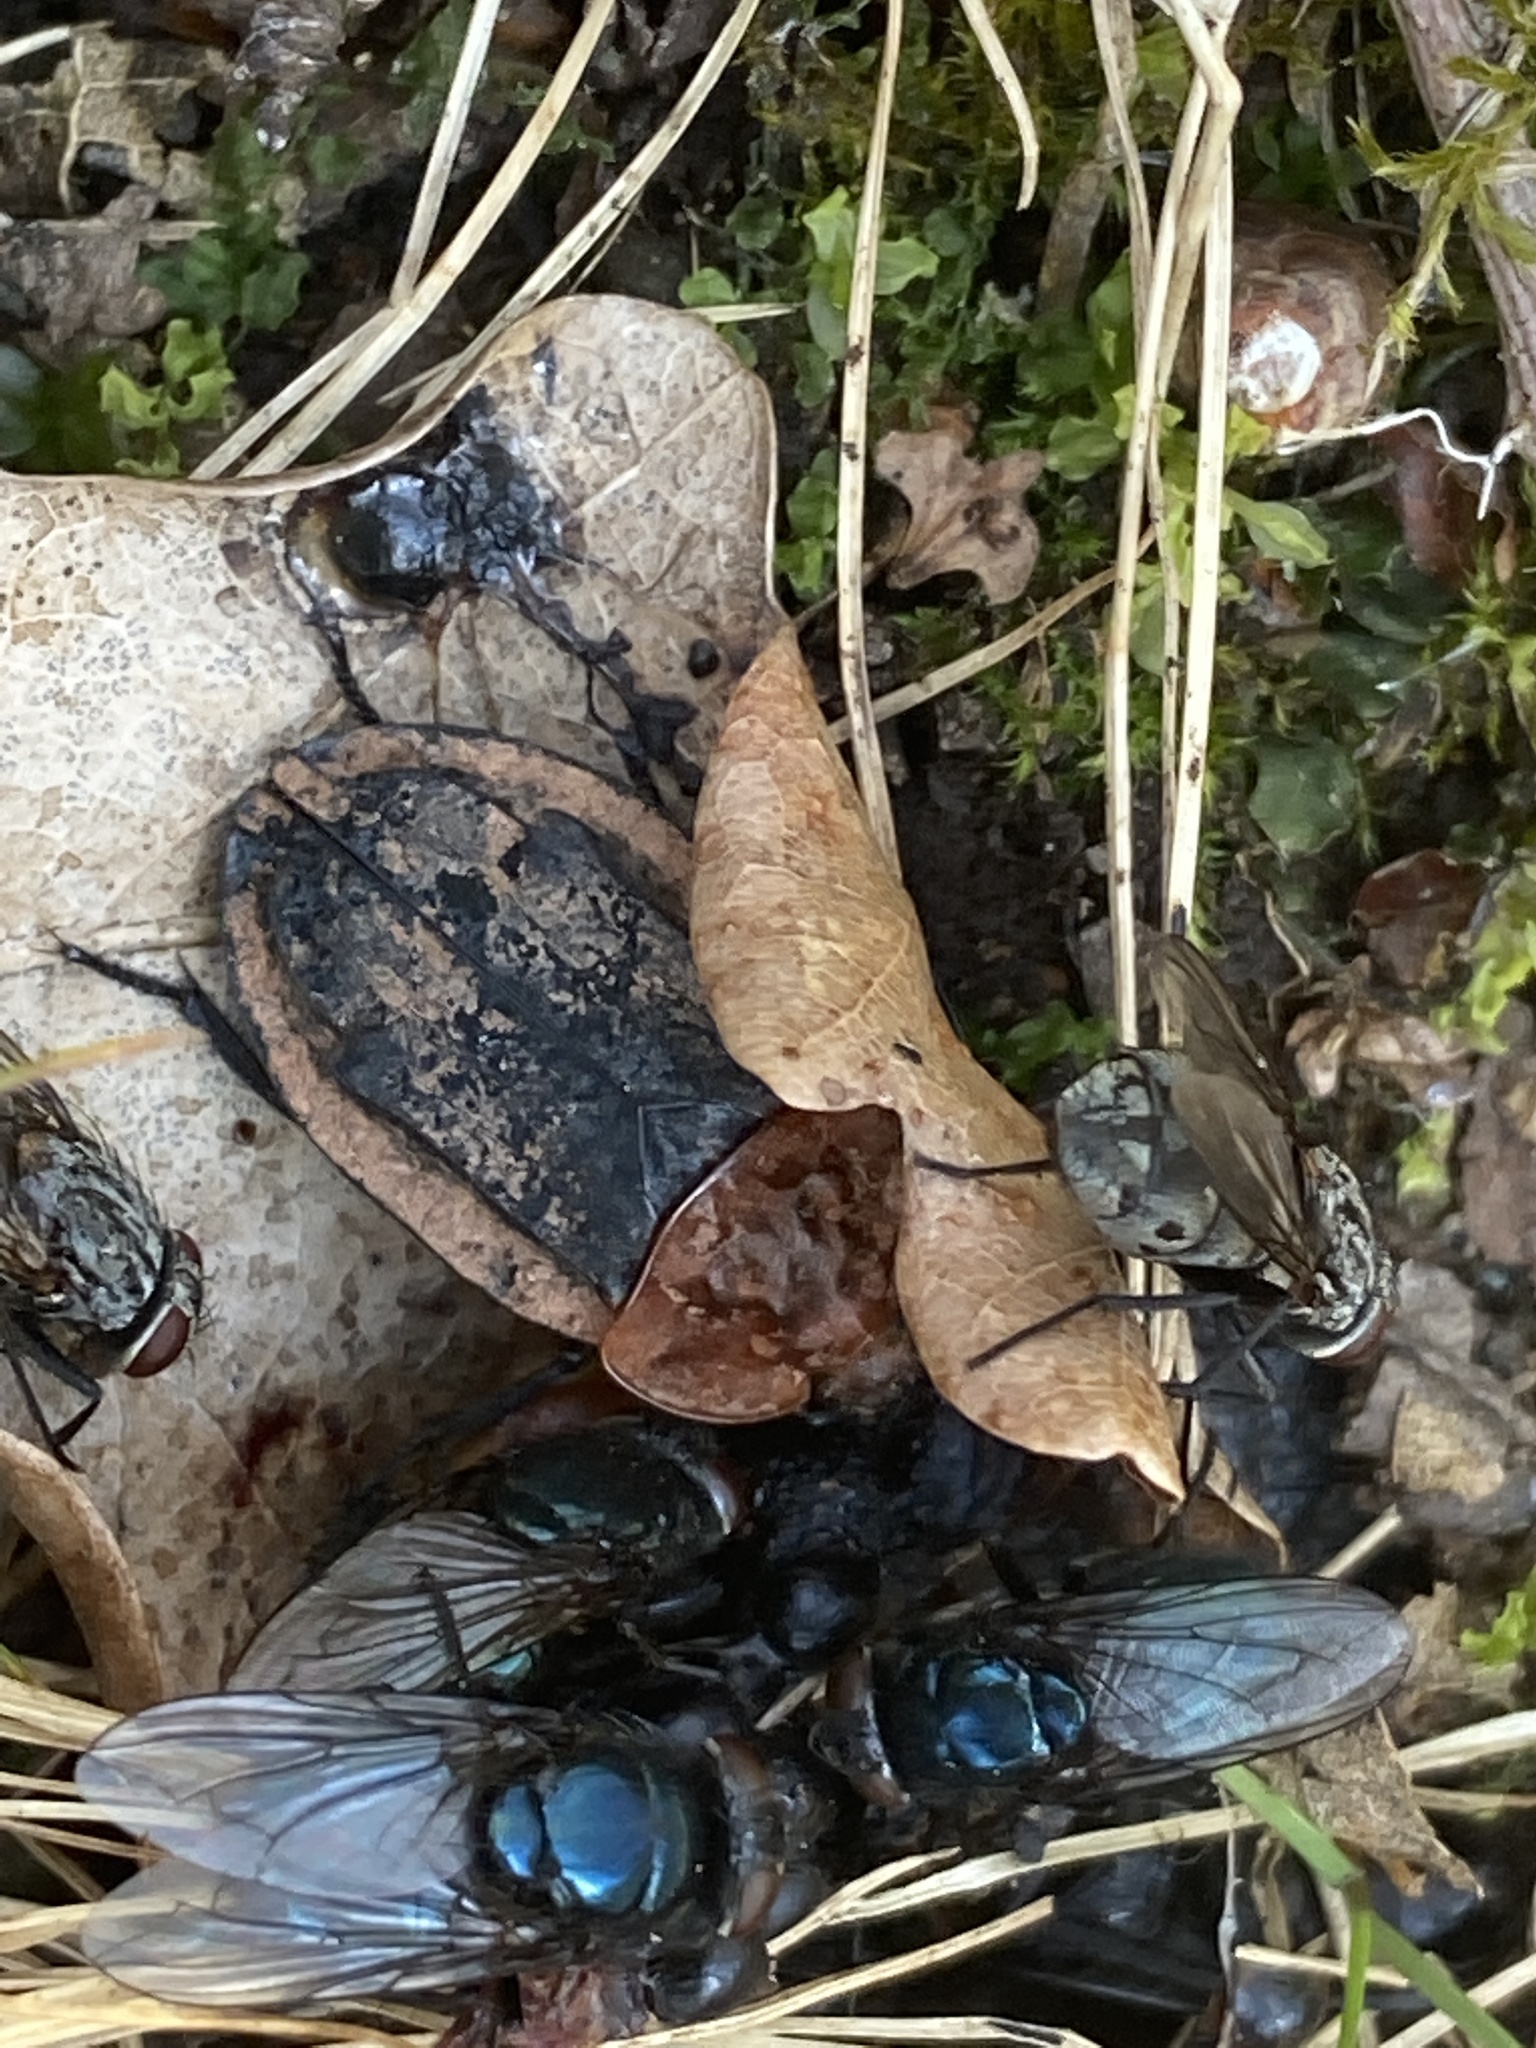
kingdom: Animalia
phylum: Arthropoda
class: Insecta
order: Coleoptera
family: Staphylinidae
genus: Oiceoptoma
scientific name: Oiceoptoma thoracicum
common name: Red-breasted carrion beetle
